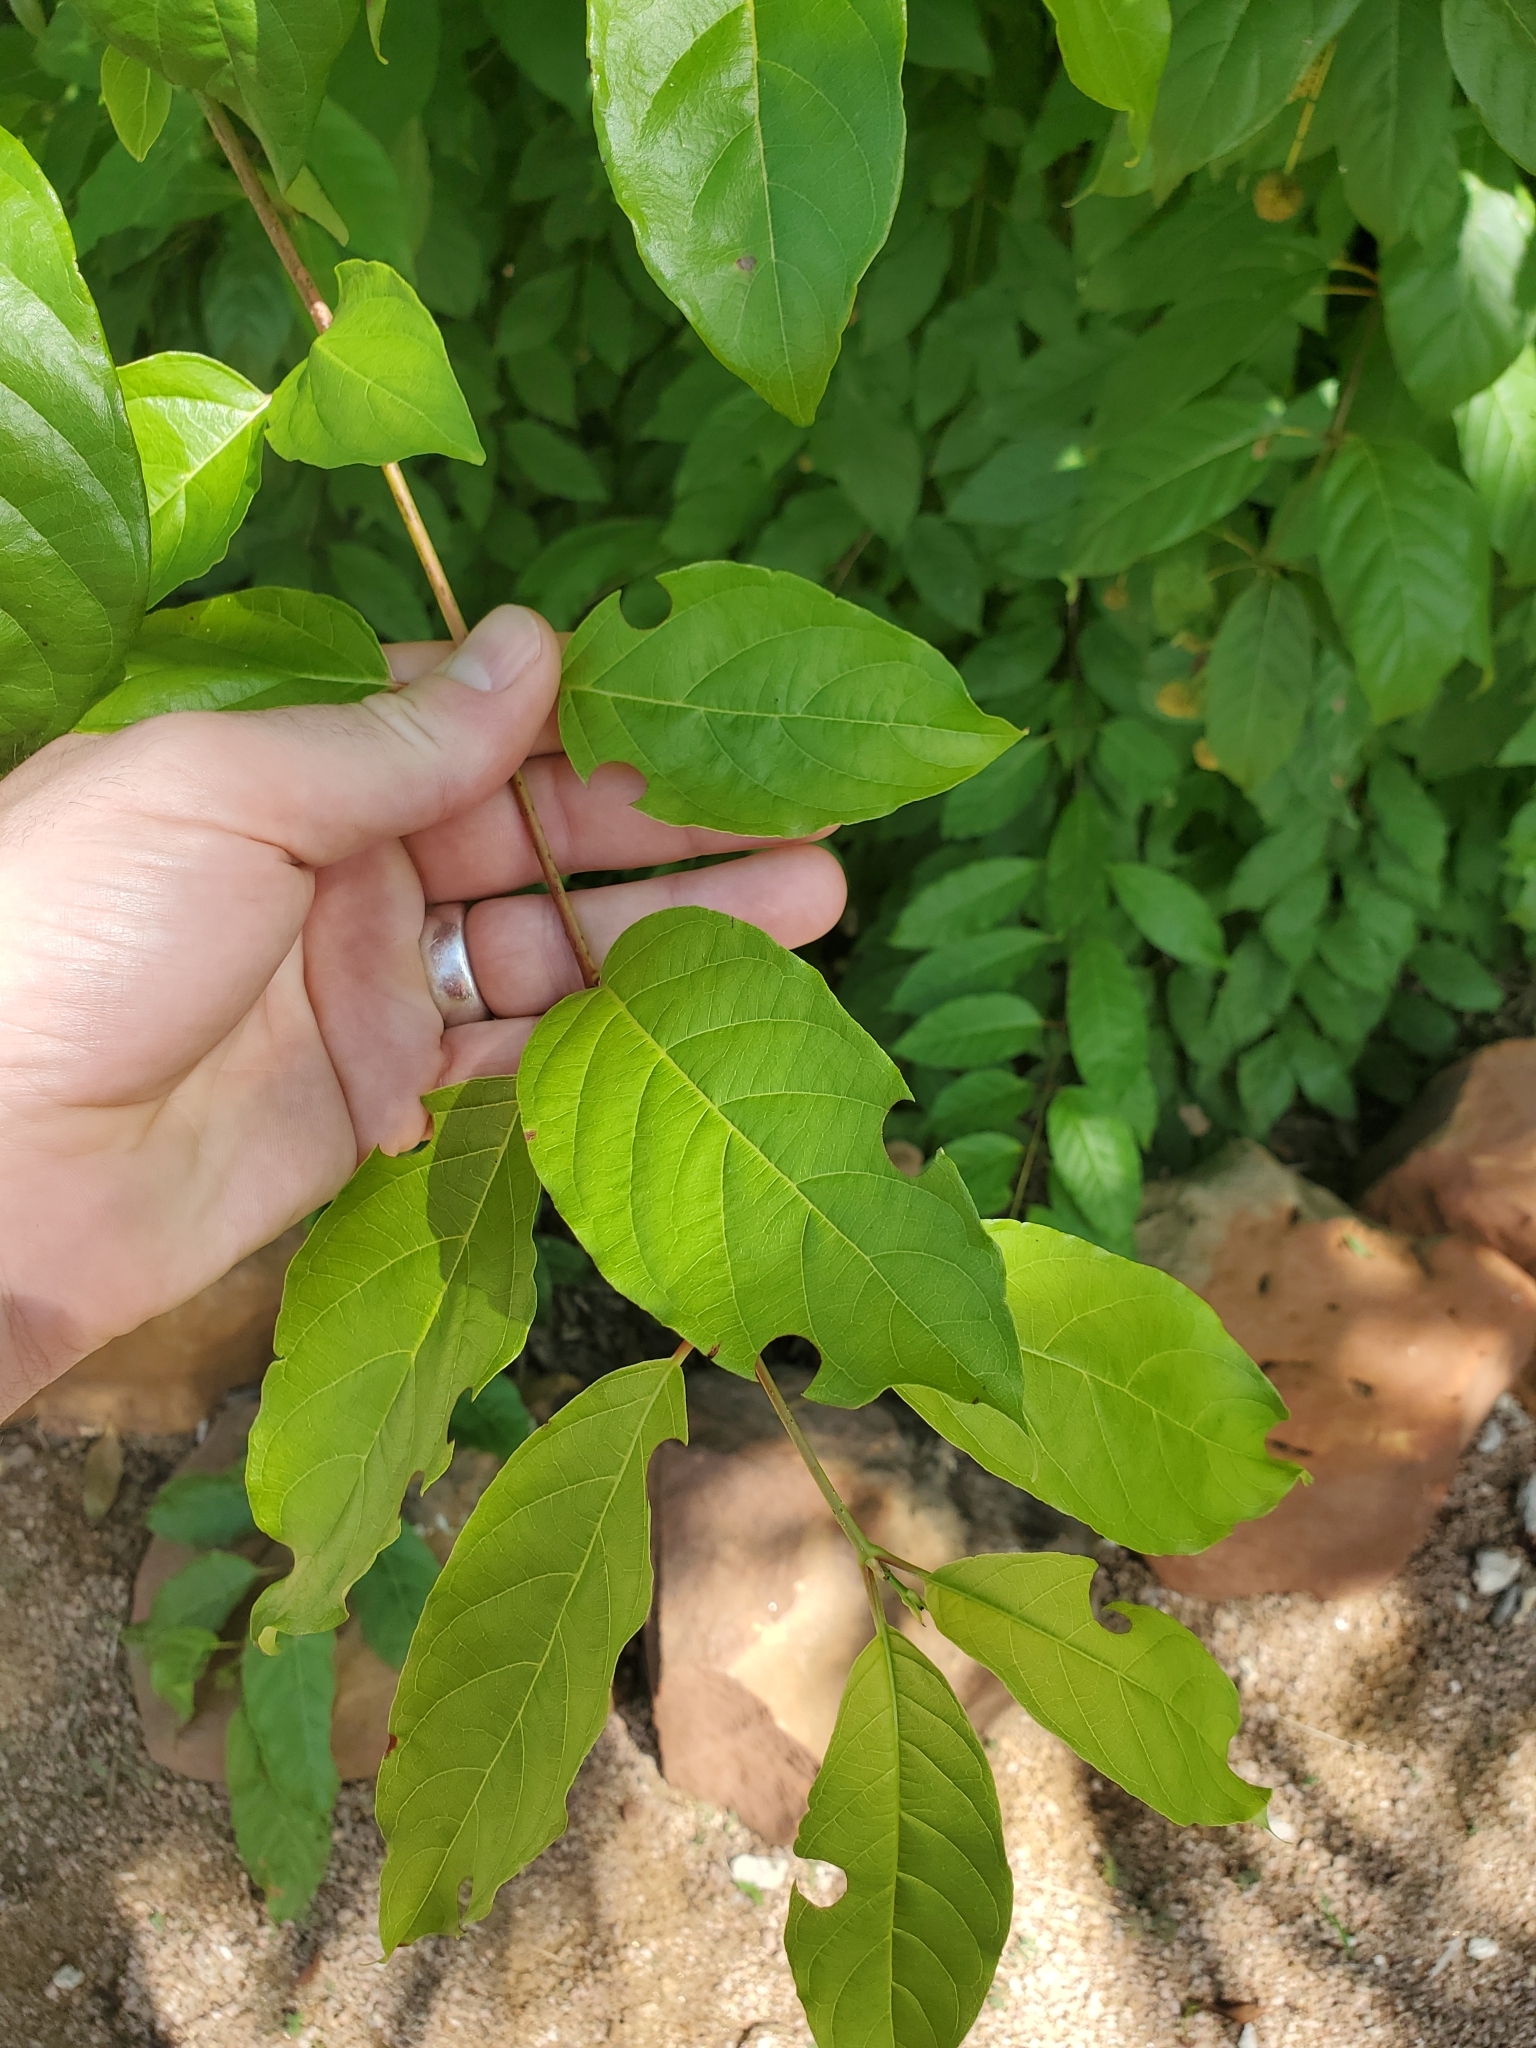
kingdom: Plantae
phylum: Tracheophyta
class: Magnoliopsida
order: Gentianales
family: Rubiaceae
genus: Cephalanthus
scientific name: Cephalanthus occidentalis
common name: Button-willow
